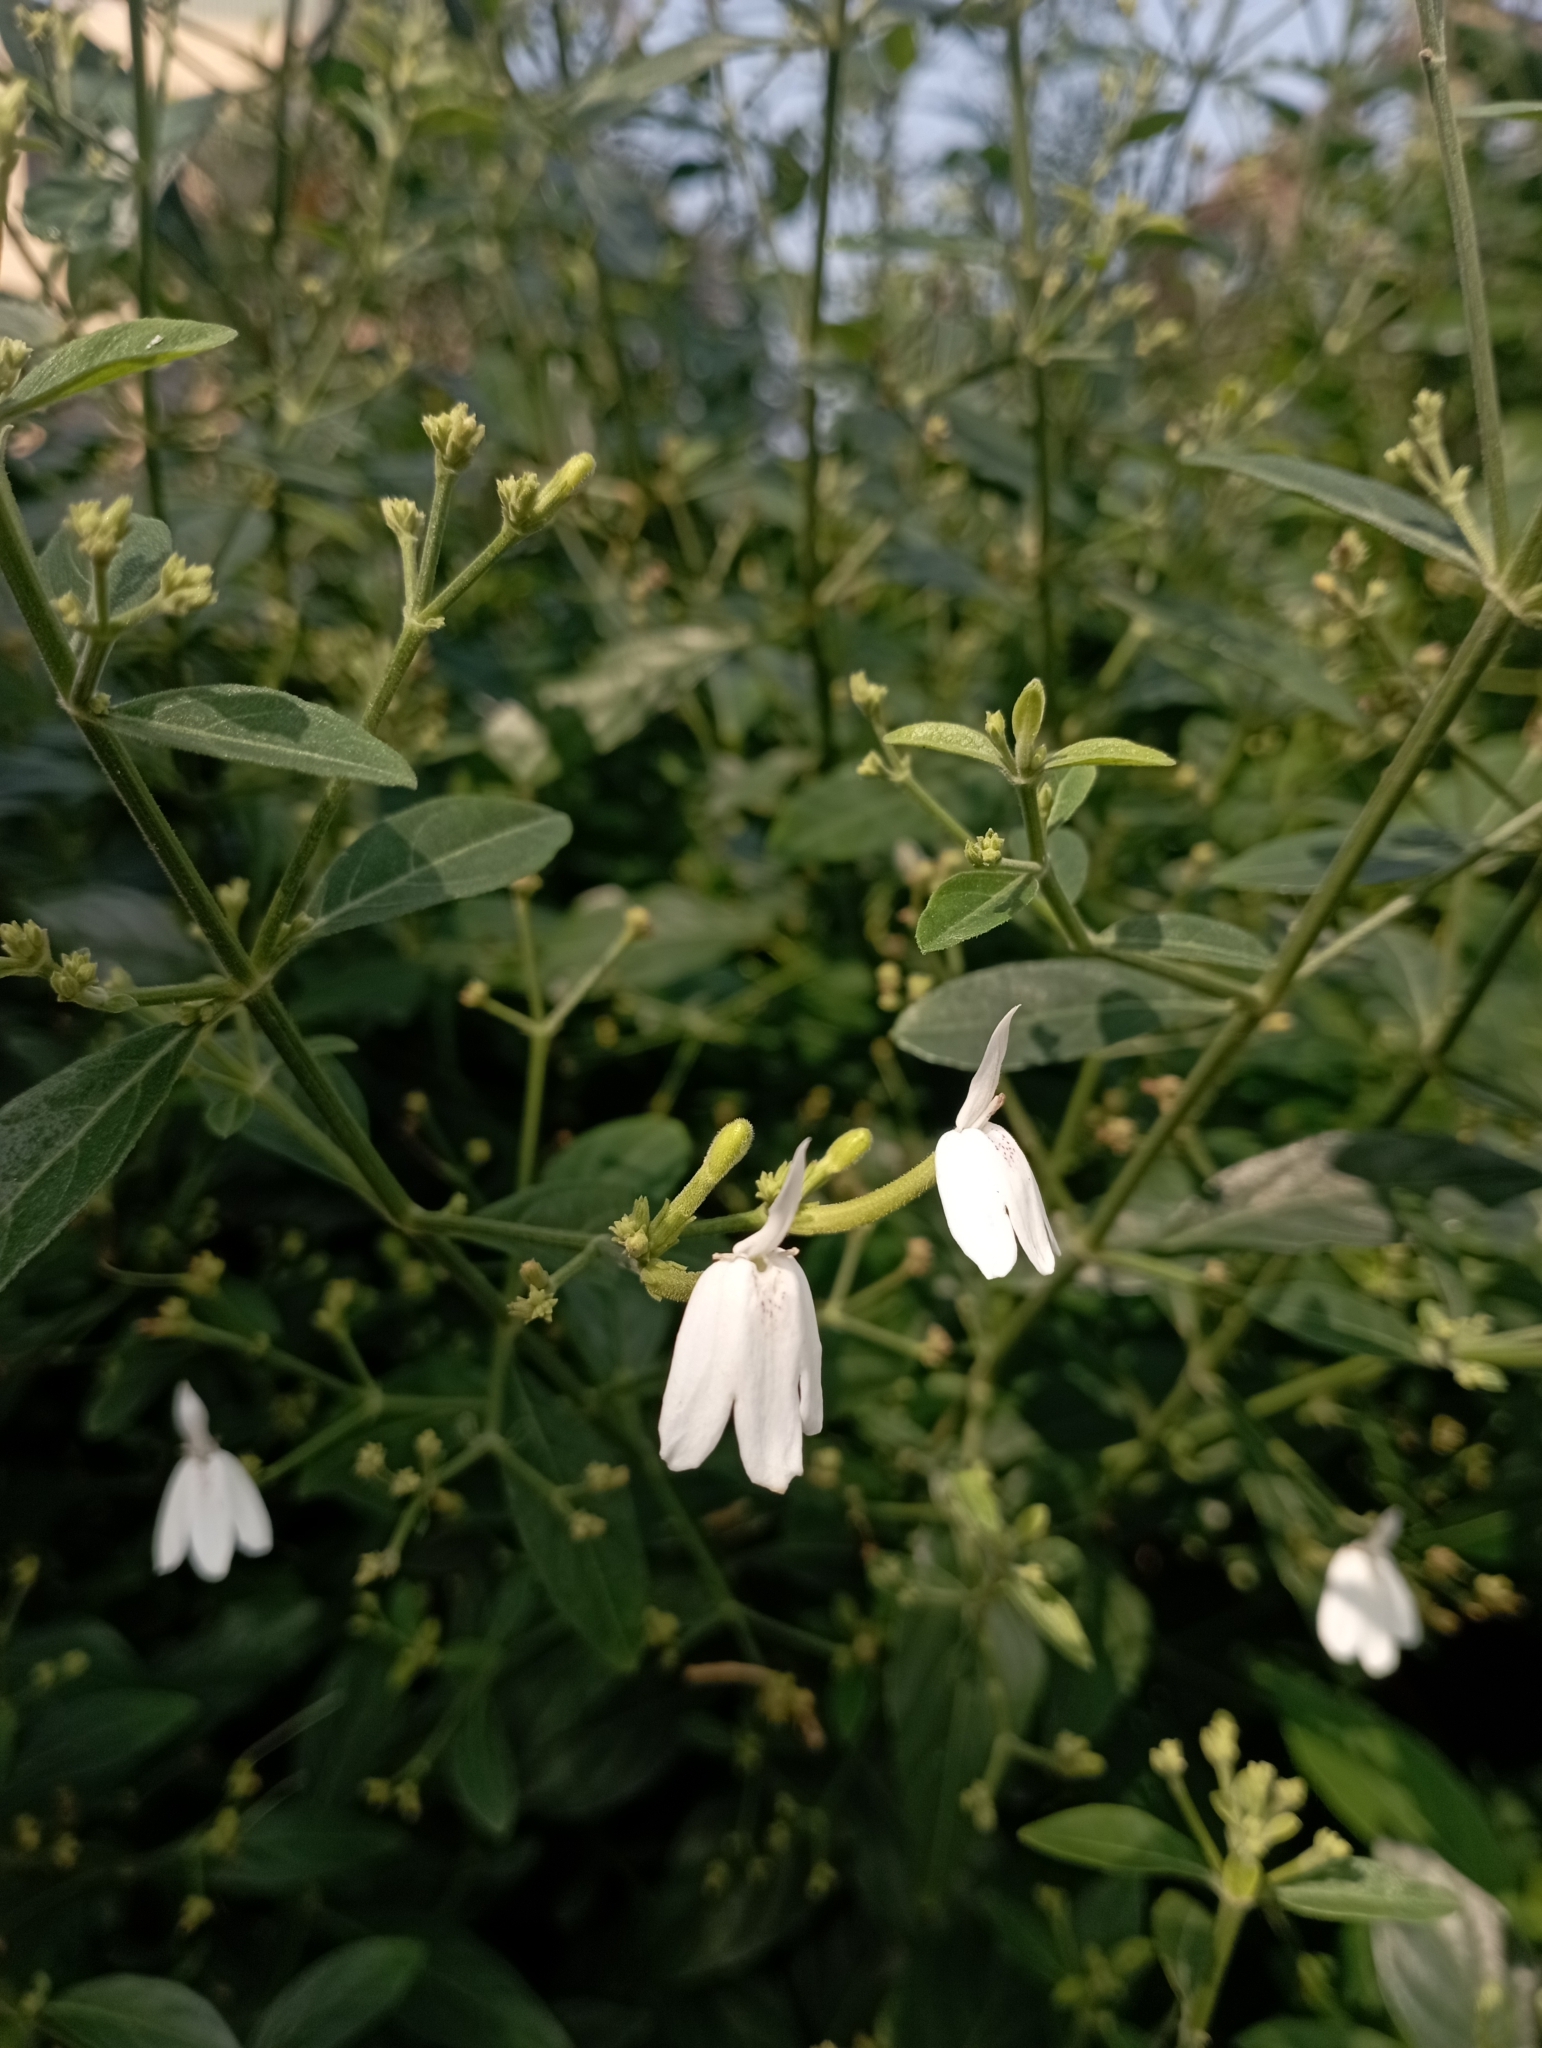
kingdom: Plantae
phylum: Tracheophyta
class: Magnoliopsida
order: Lamiales
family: Acanthaceae
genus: Rhinacanthus
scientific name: Rhinacanthus nasutus
